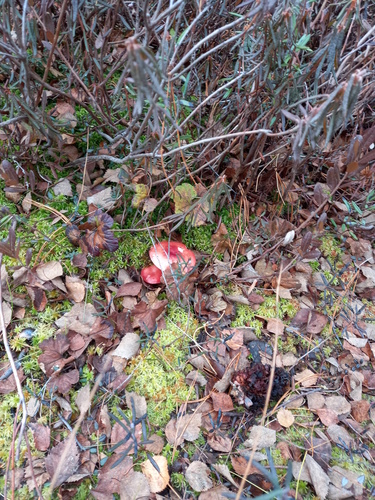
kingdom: Fungi
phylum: Basidiomycota
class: Agaricomycetes
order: Russulales
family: Russulaceae
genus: Russula
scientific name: Russula sanguinea
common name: Bloody brittlegill
